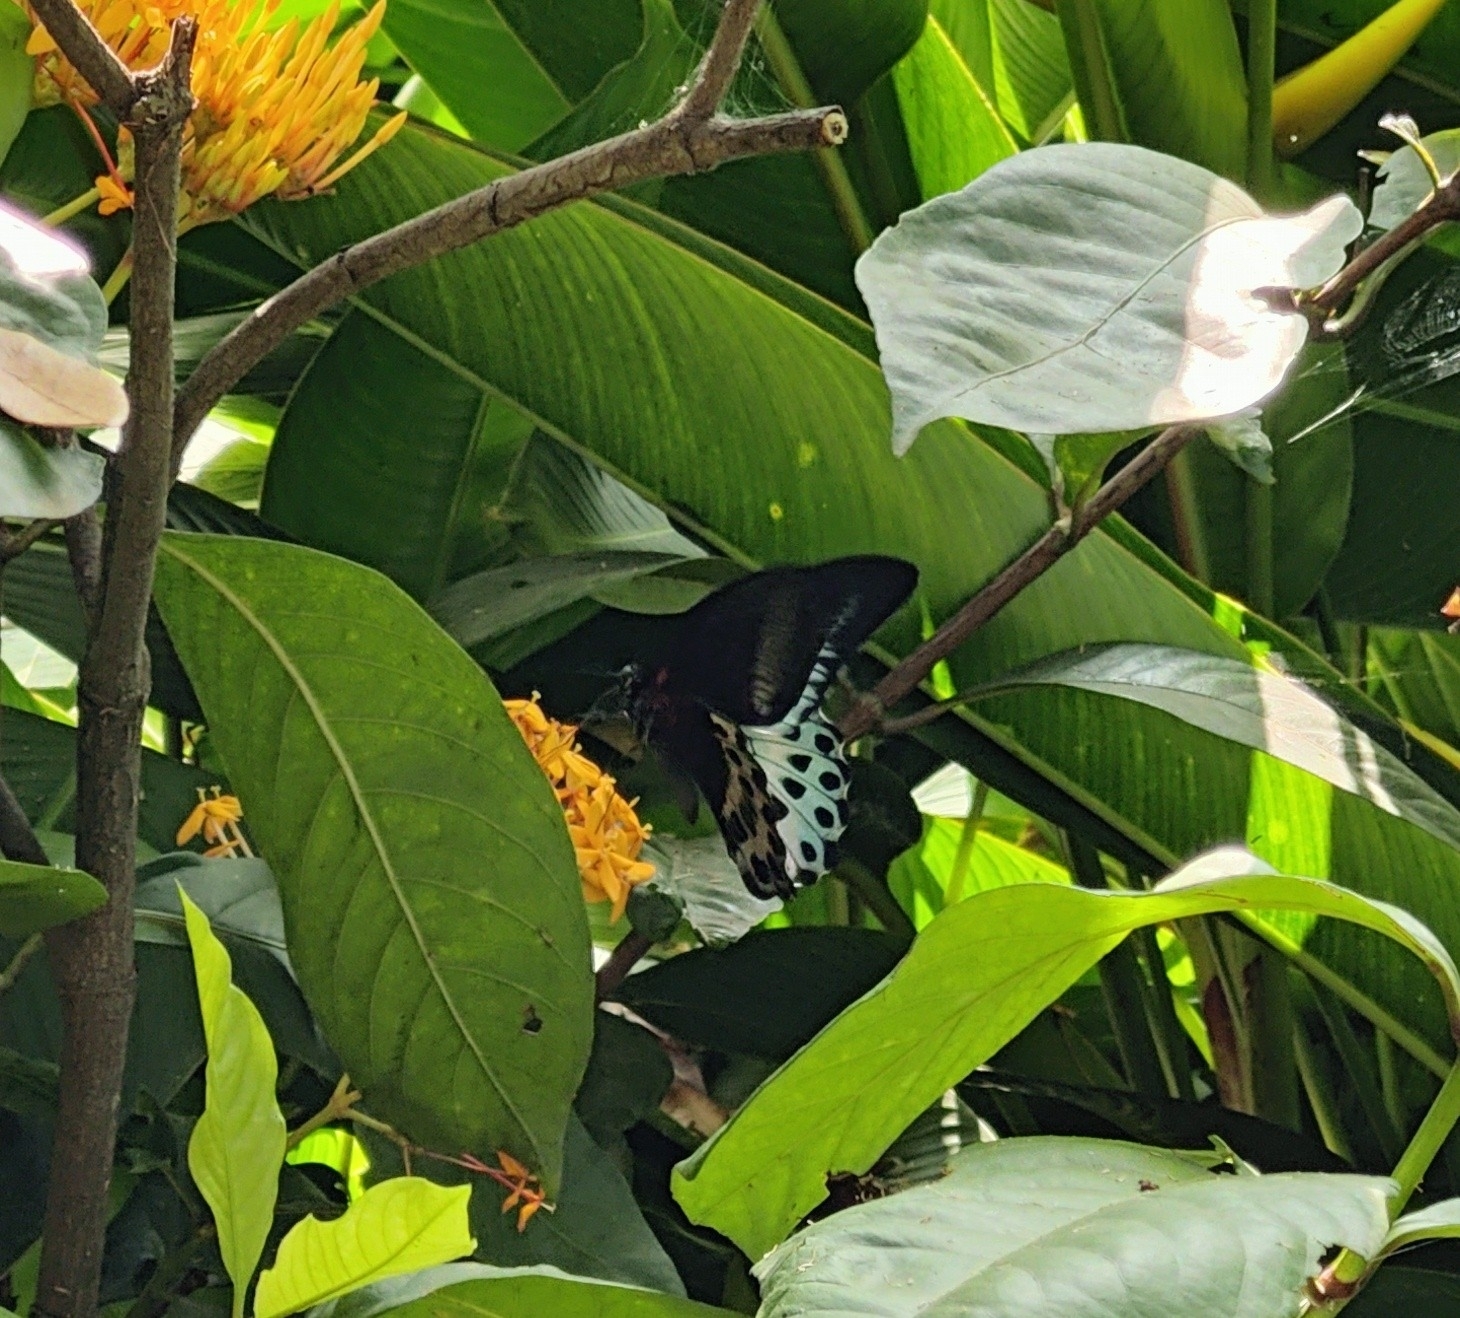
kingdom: Animalia
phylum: Arthropoda
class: Insecta
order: Lepidoptera
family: Papilionidae
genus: Papilio
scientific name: Papilio memnon
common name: Great mormon
